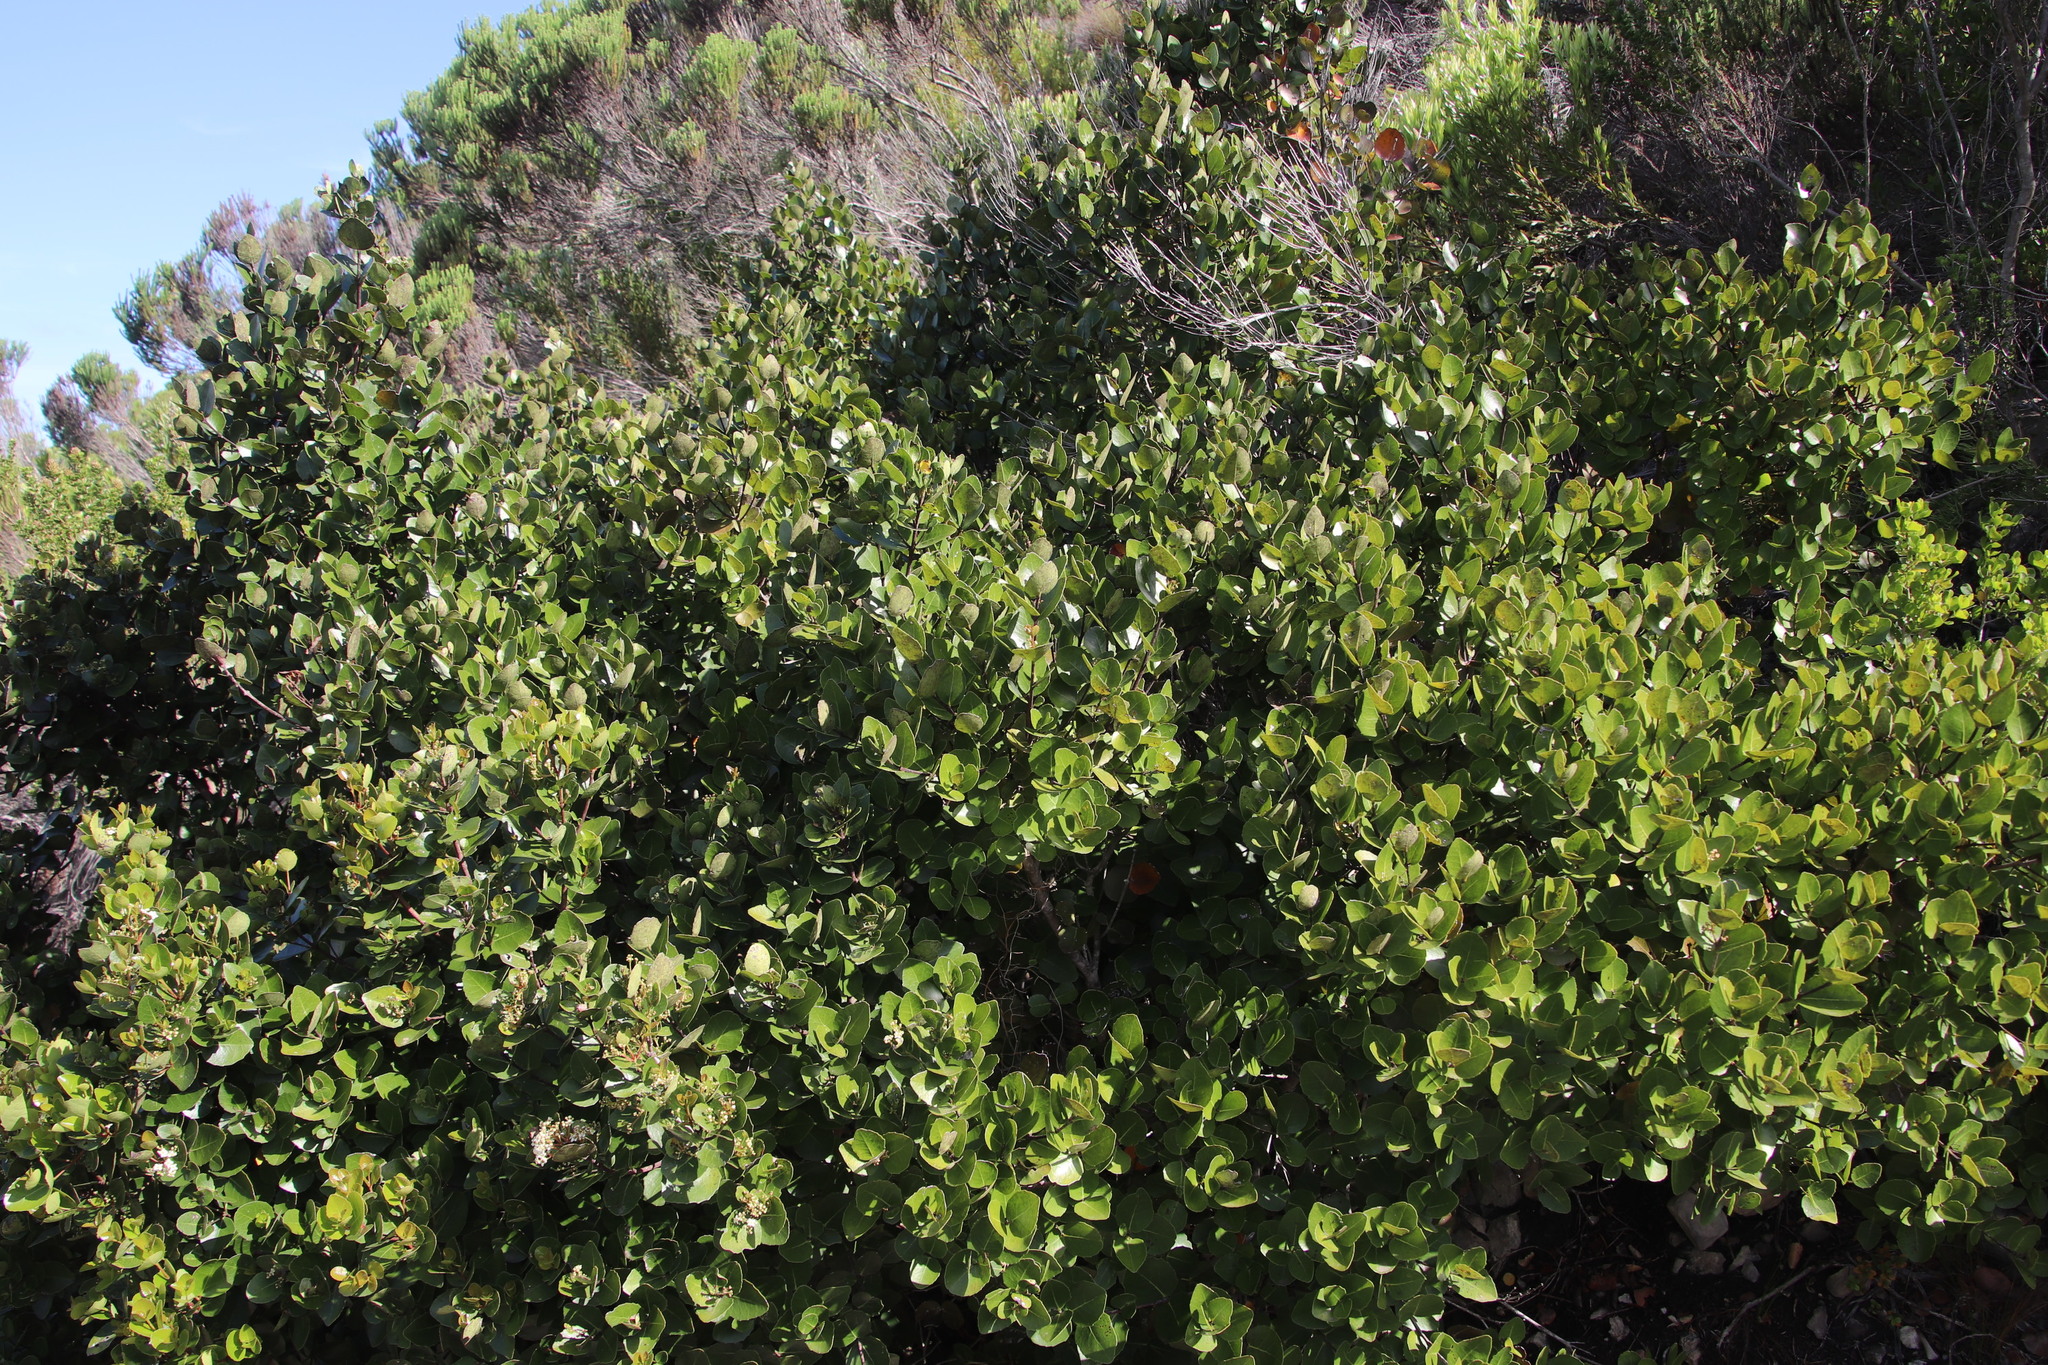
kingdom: Plantae
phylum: Tracheophyta
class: Magnoliopsida
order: Celastrales
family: Celastraceae
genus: Cassine
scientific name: Cassine peragua
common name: Cape saffron
